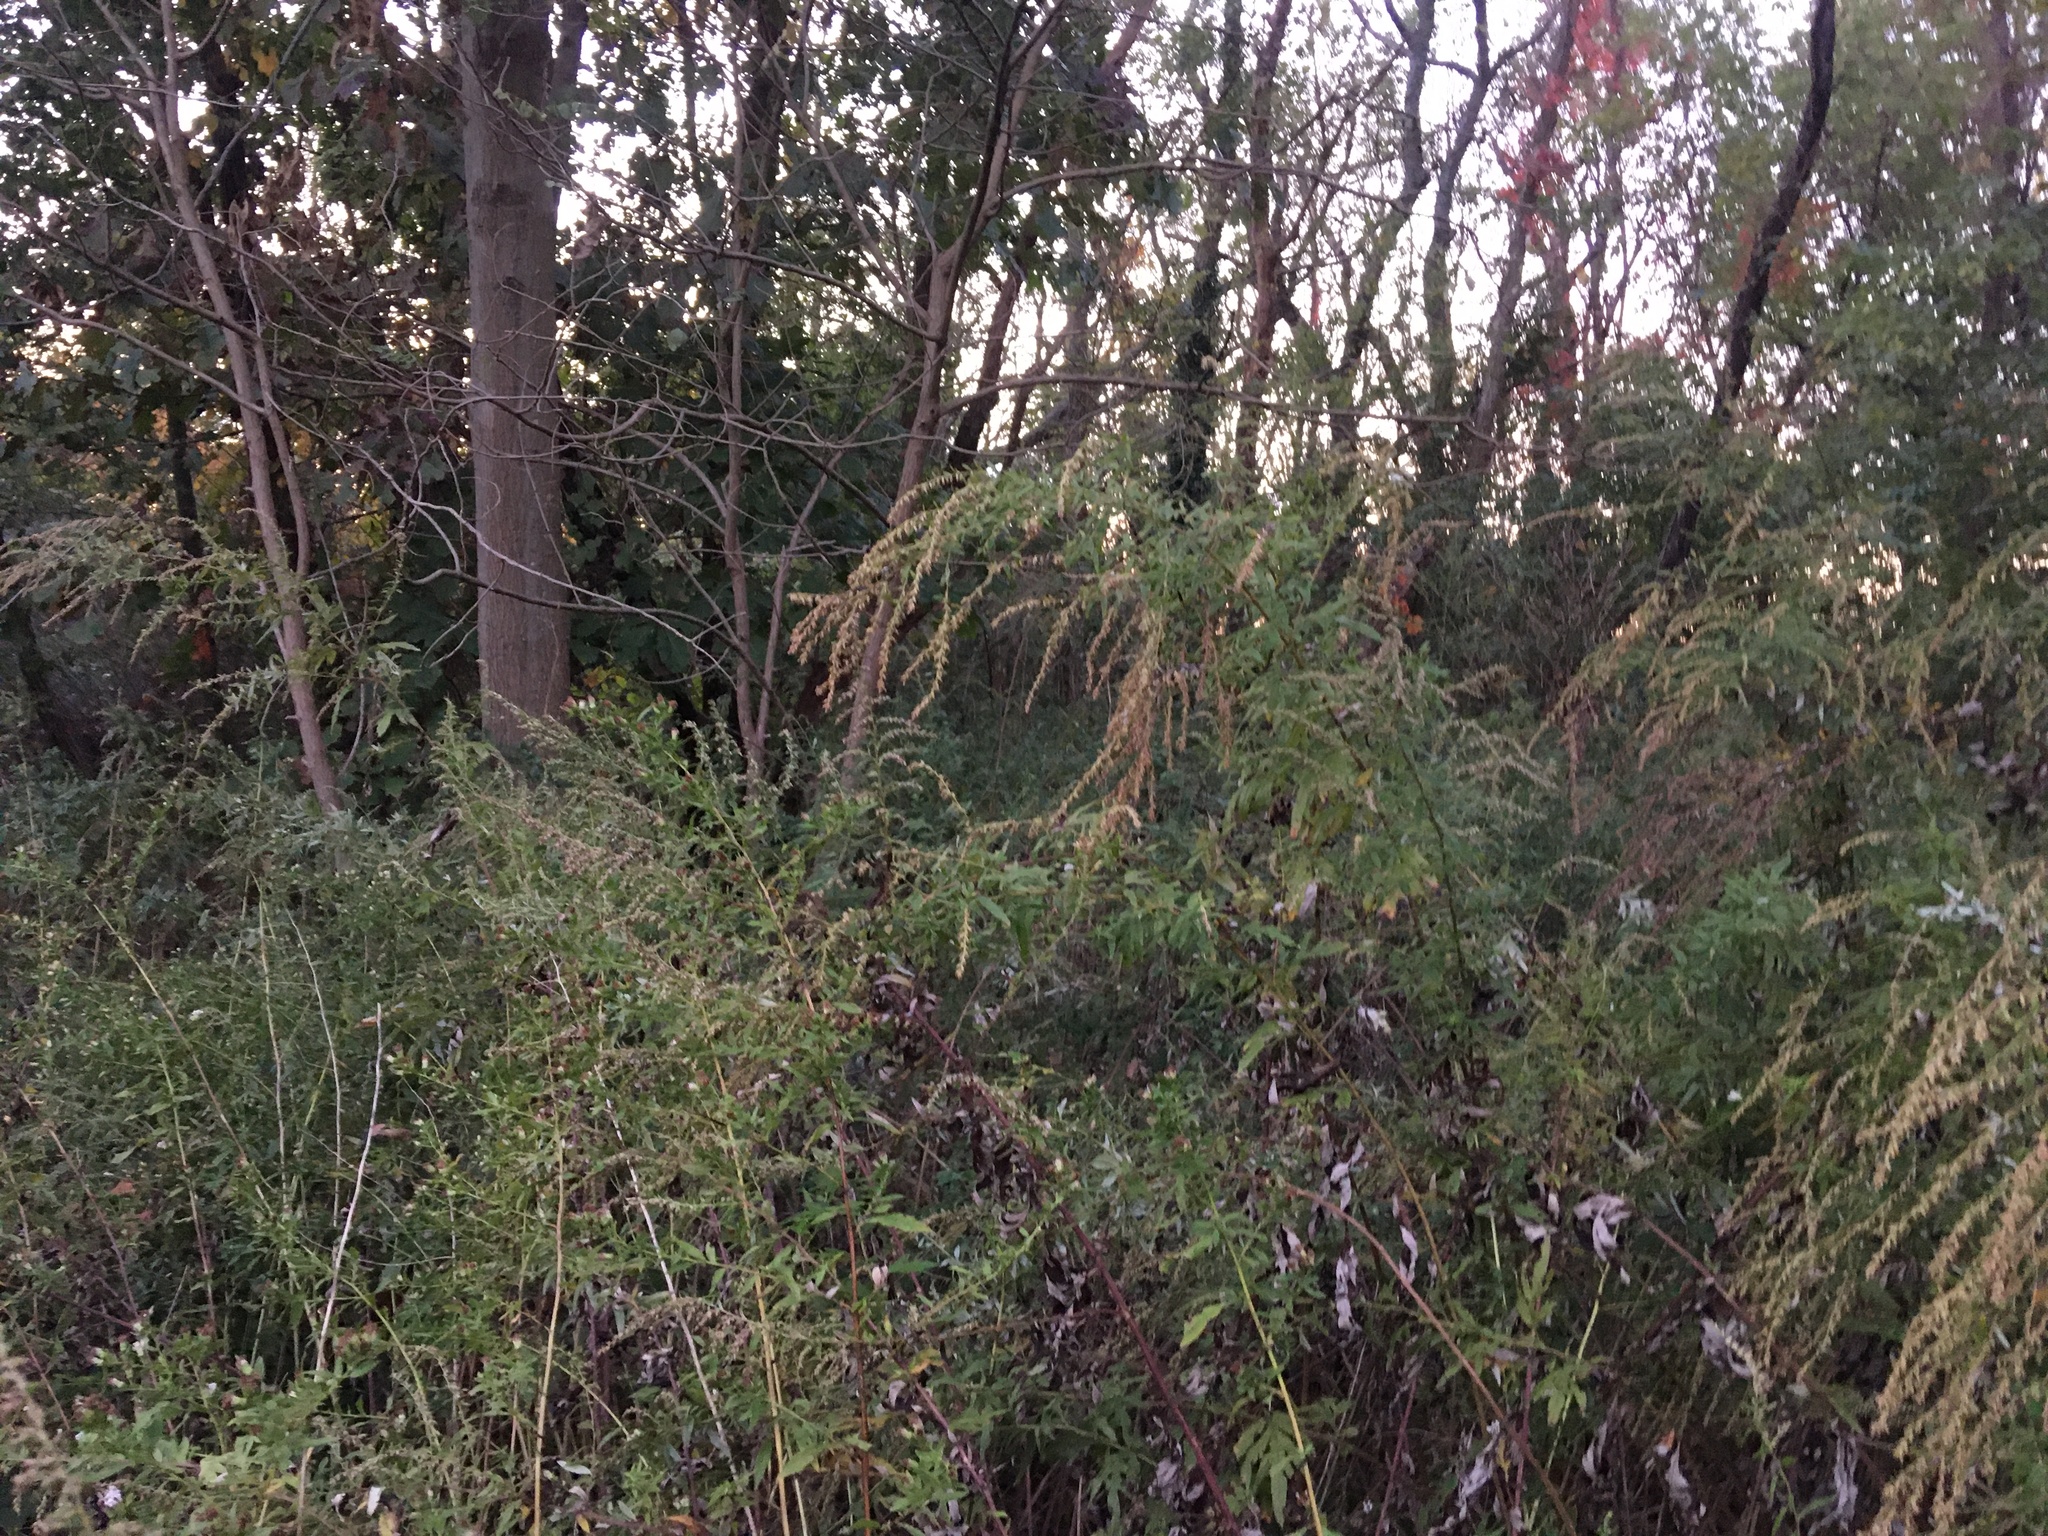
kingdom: Plantae
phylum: Tracheophyta
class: Magnoliopsida
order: Asterales
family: Asteraceae
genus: Artemisia
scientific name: Artemisia vulgaris
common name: Mugwort
